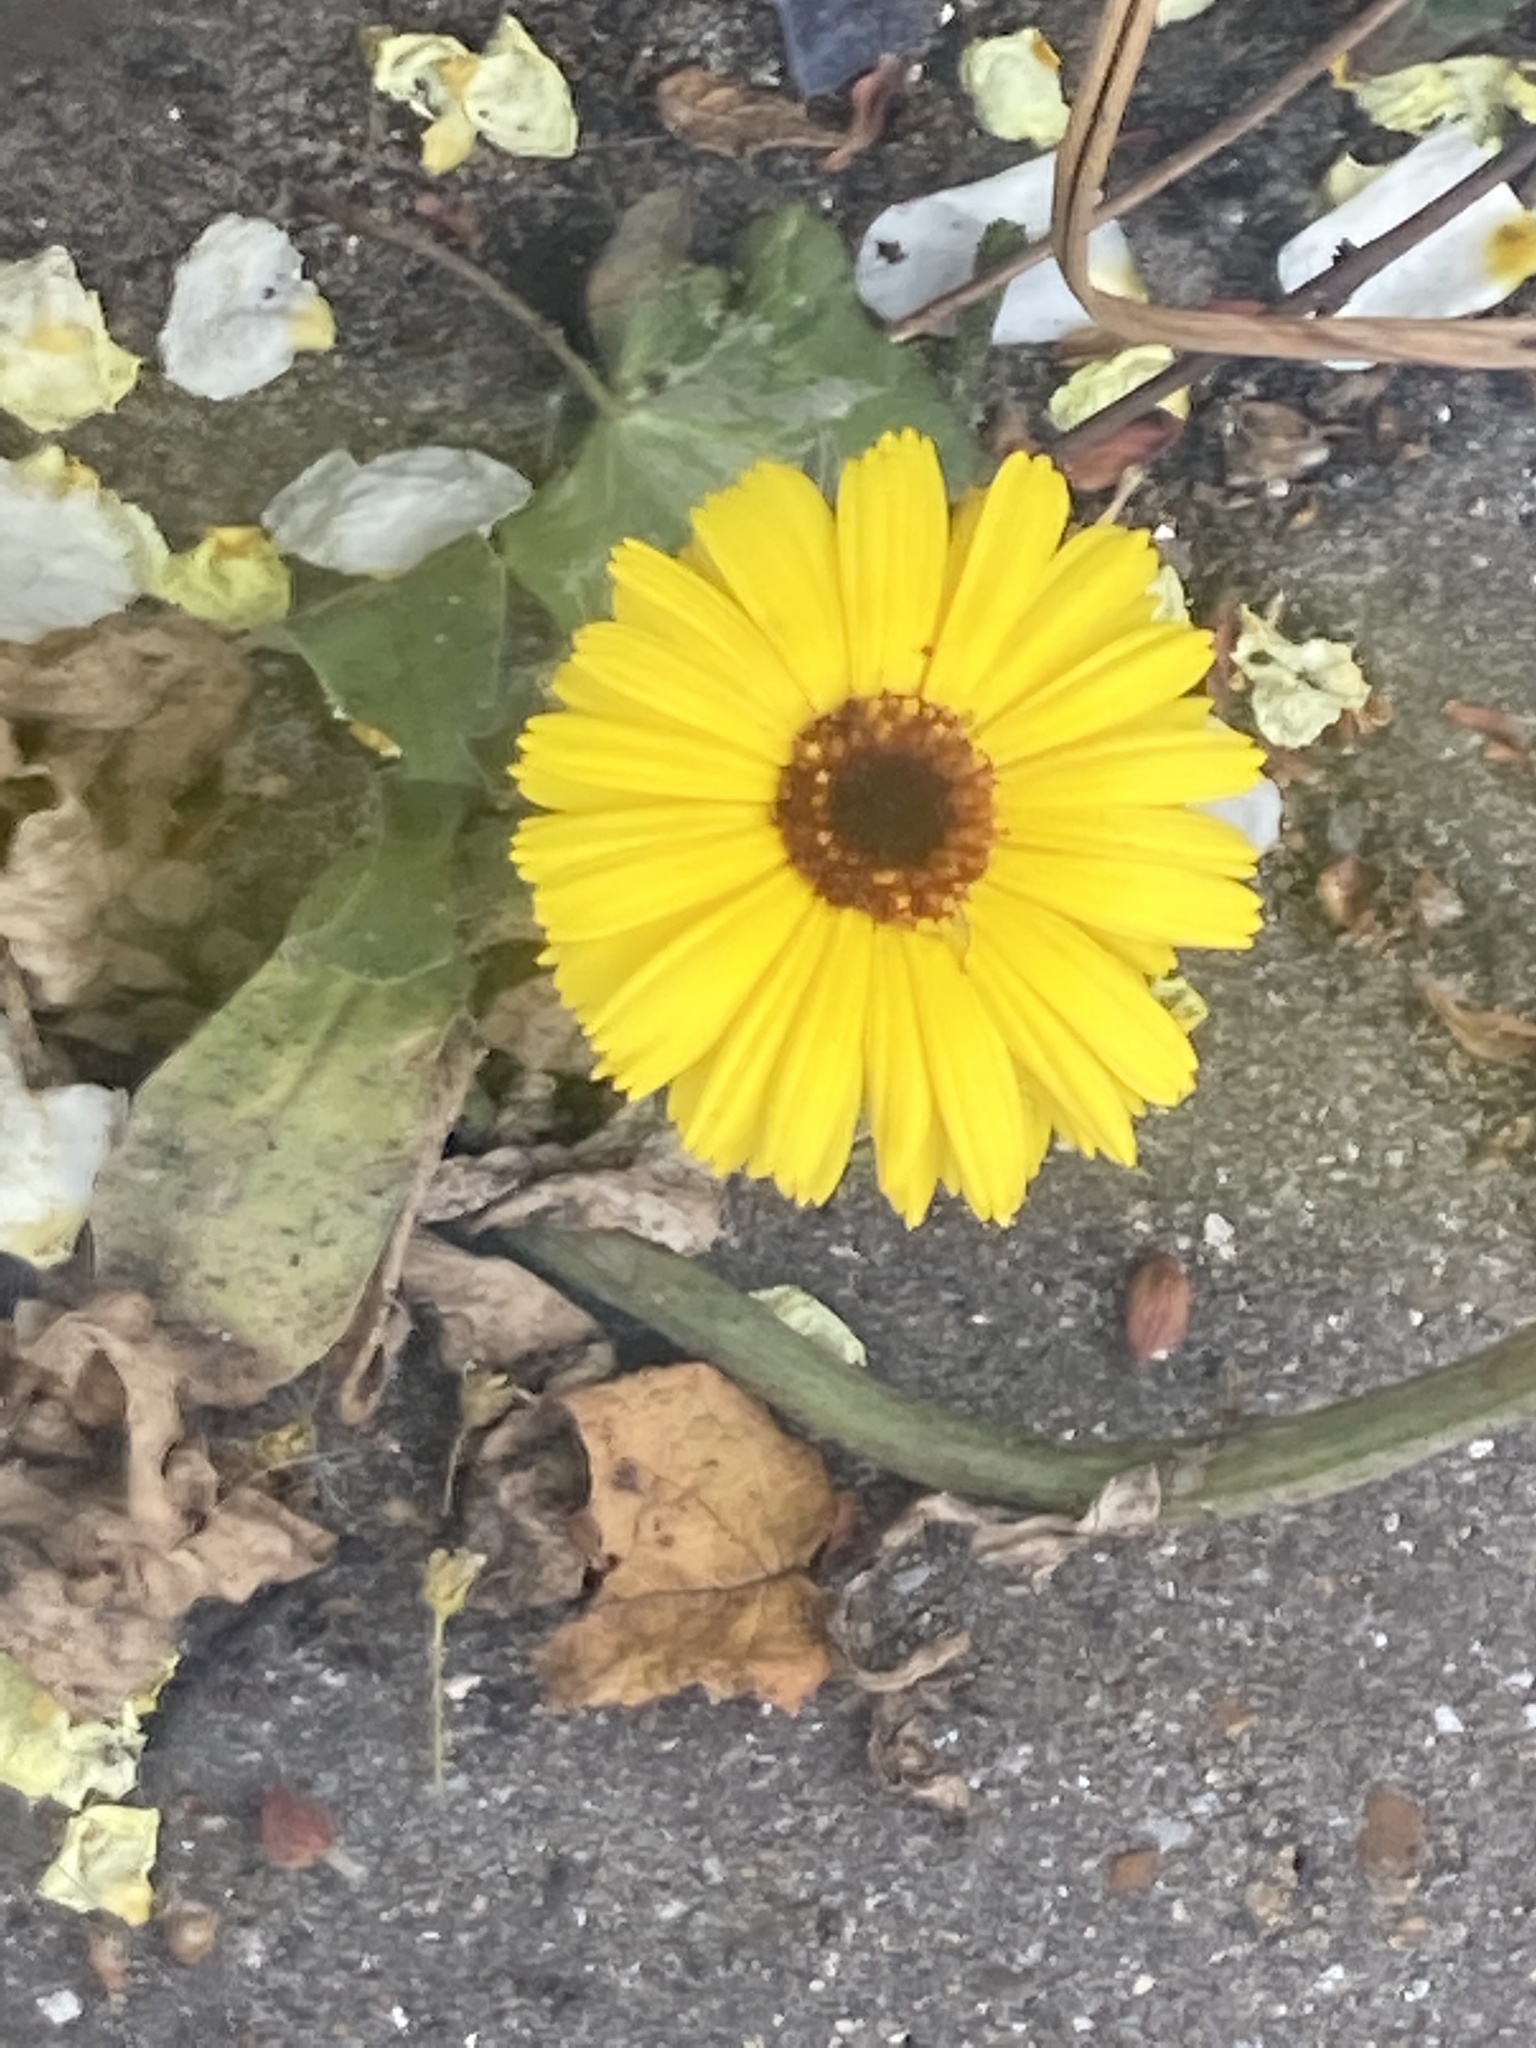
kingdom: Plantae
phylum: Tracheophyta
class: Magnoliopsida
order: Asterales
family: Asteraceae
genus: Calendula
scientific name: Calendula officinalis
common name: Pot marigold
